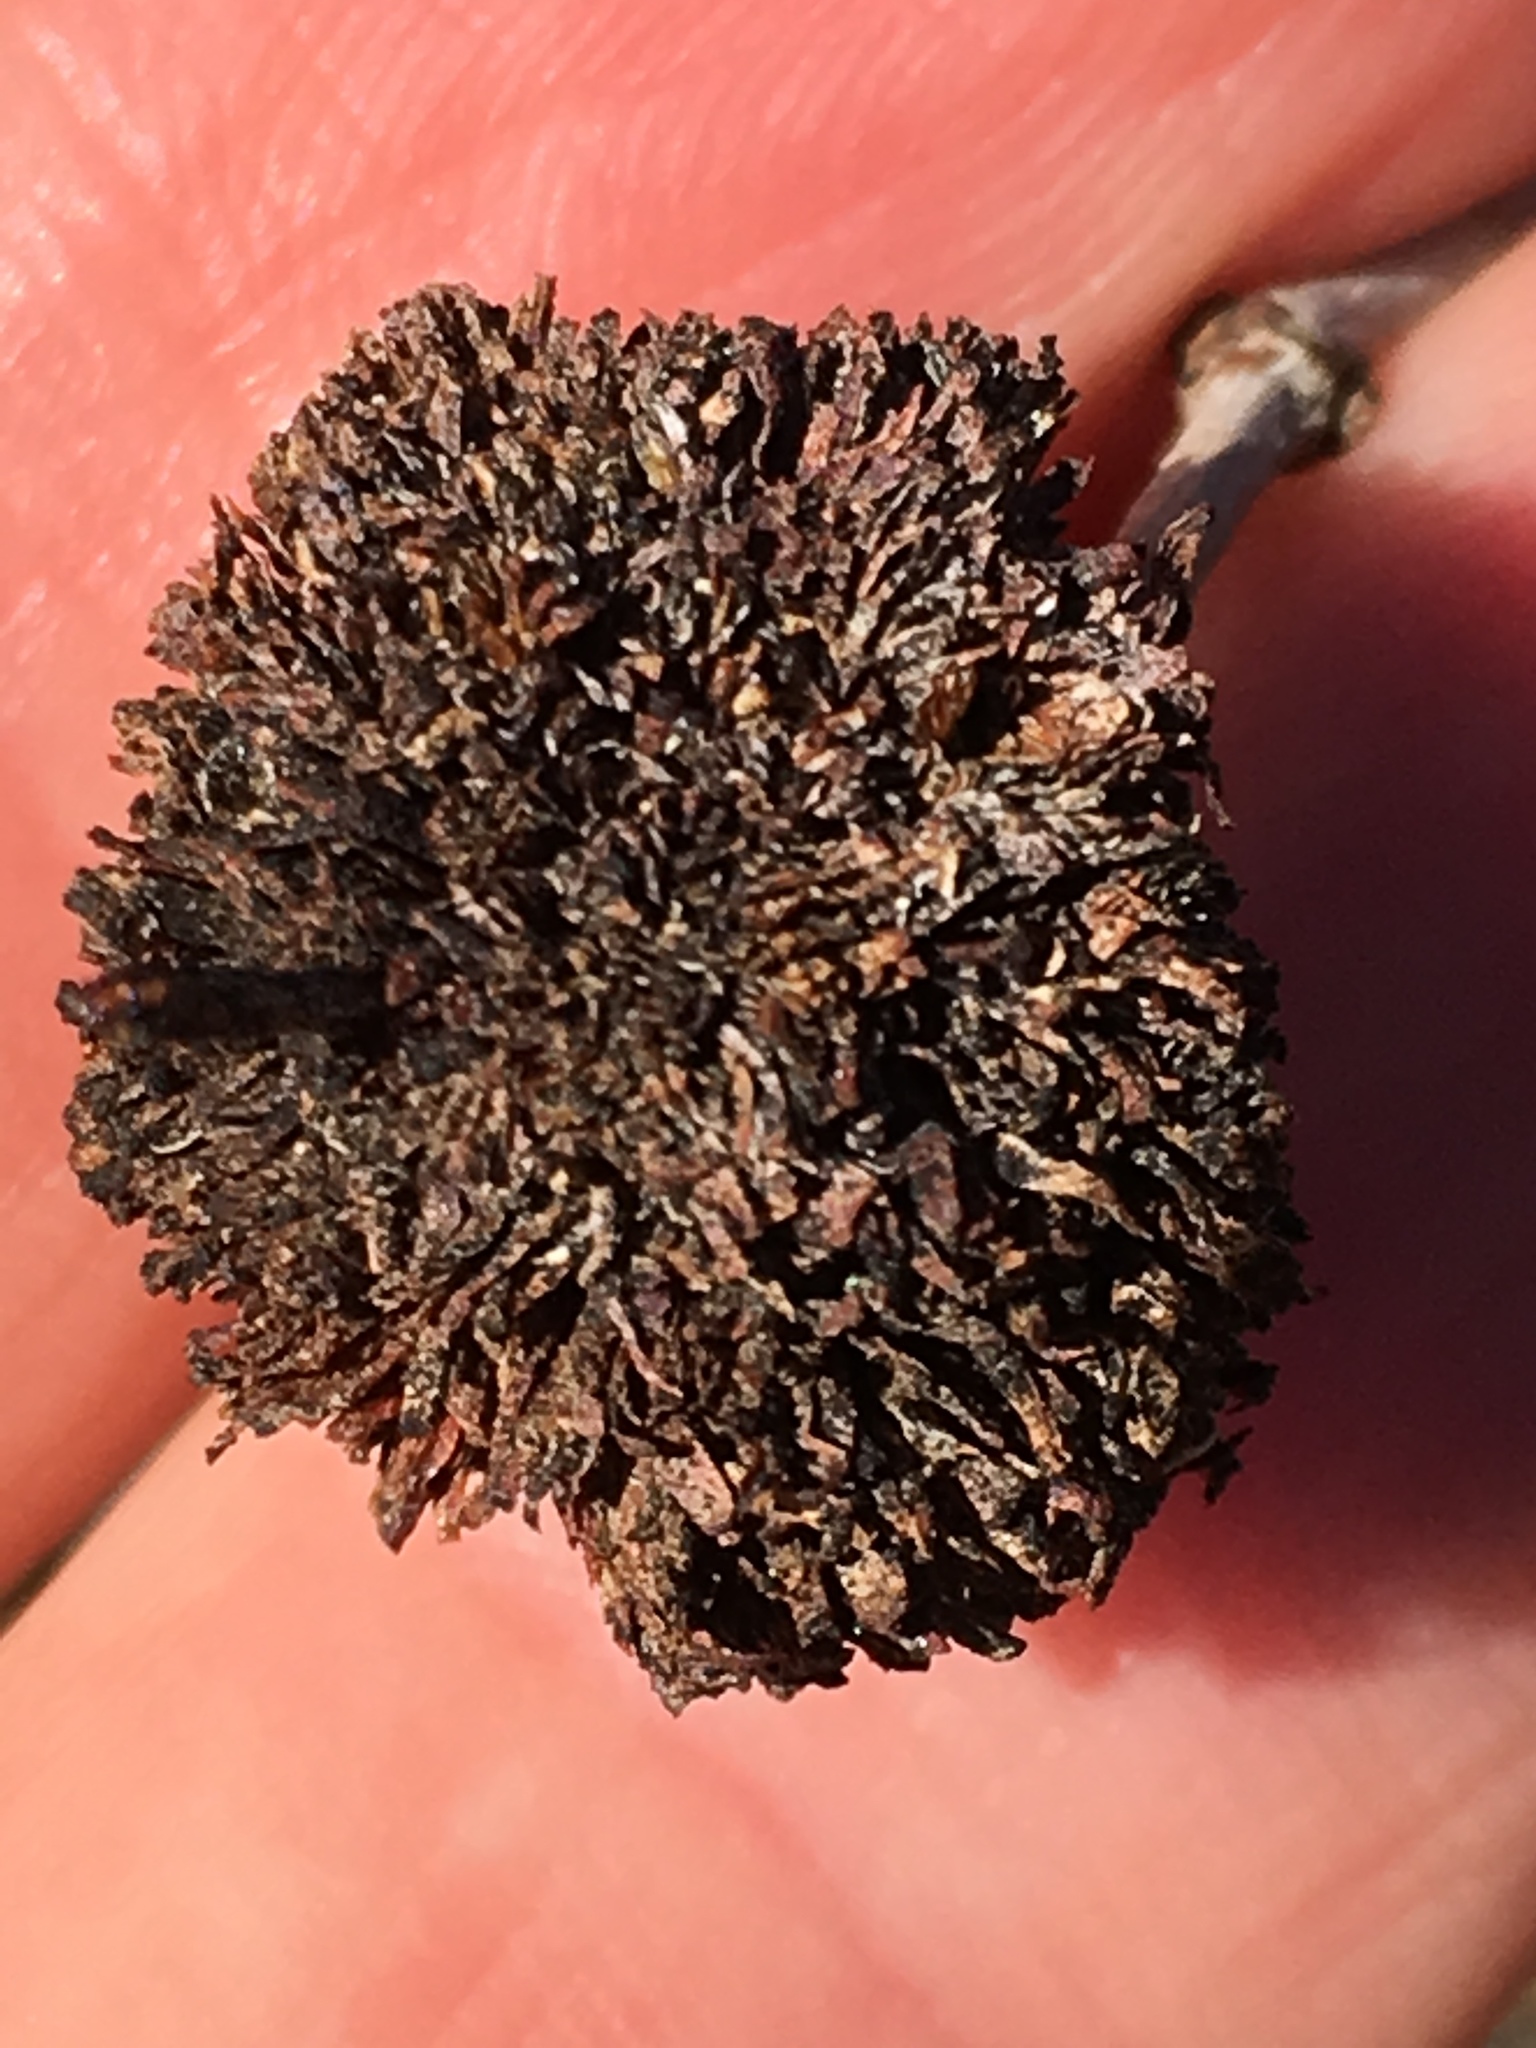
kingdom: Plantae
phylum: Tracheophyta
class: Magnoliopsida
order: Zygophyllales
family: Zygophyllaceae
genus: Larrea
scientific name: Larrea tridentata
